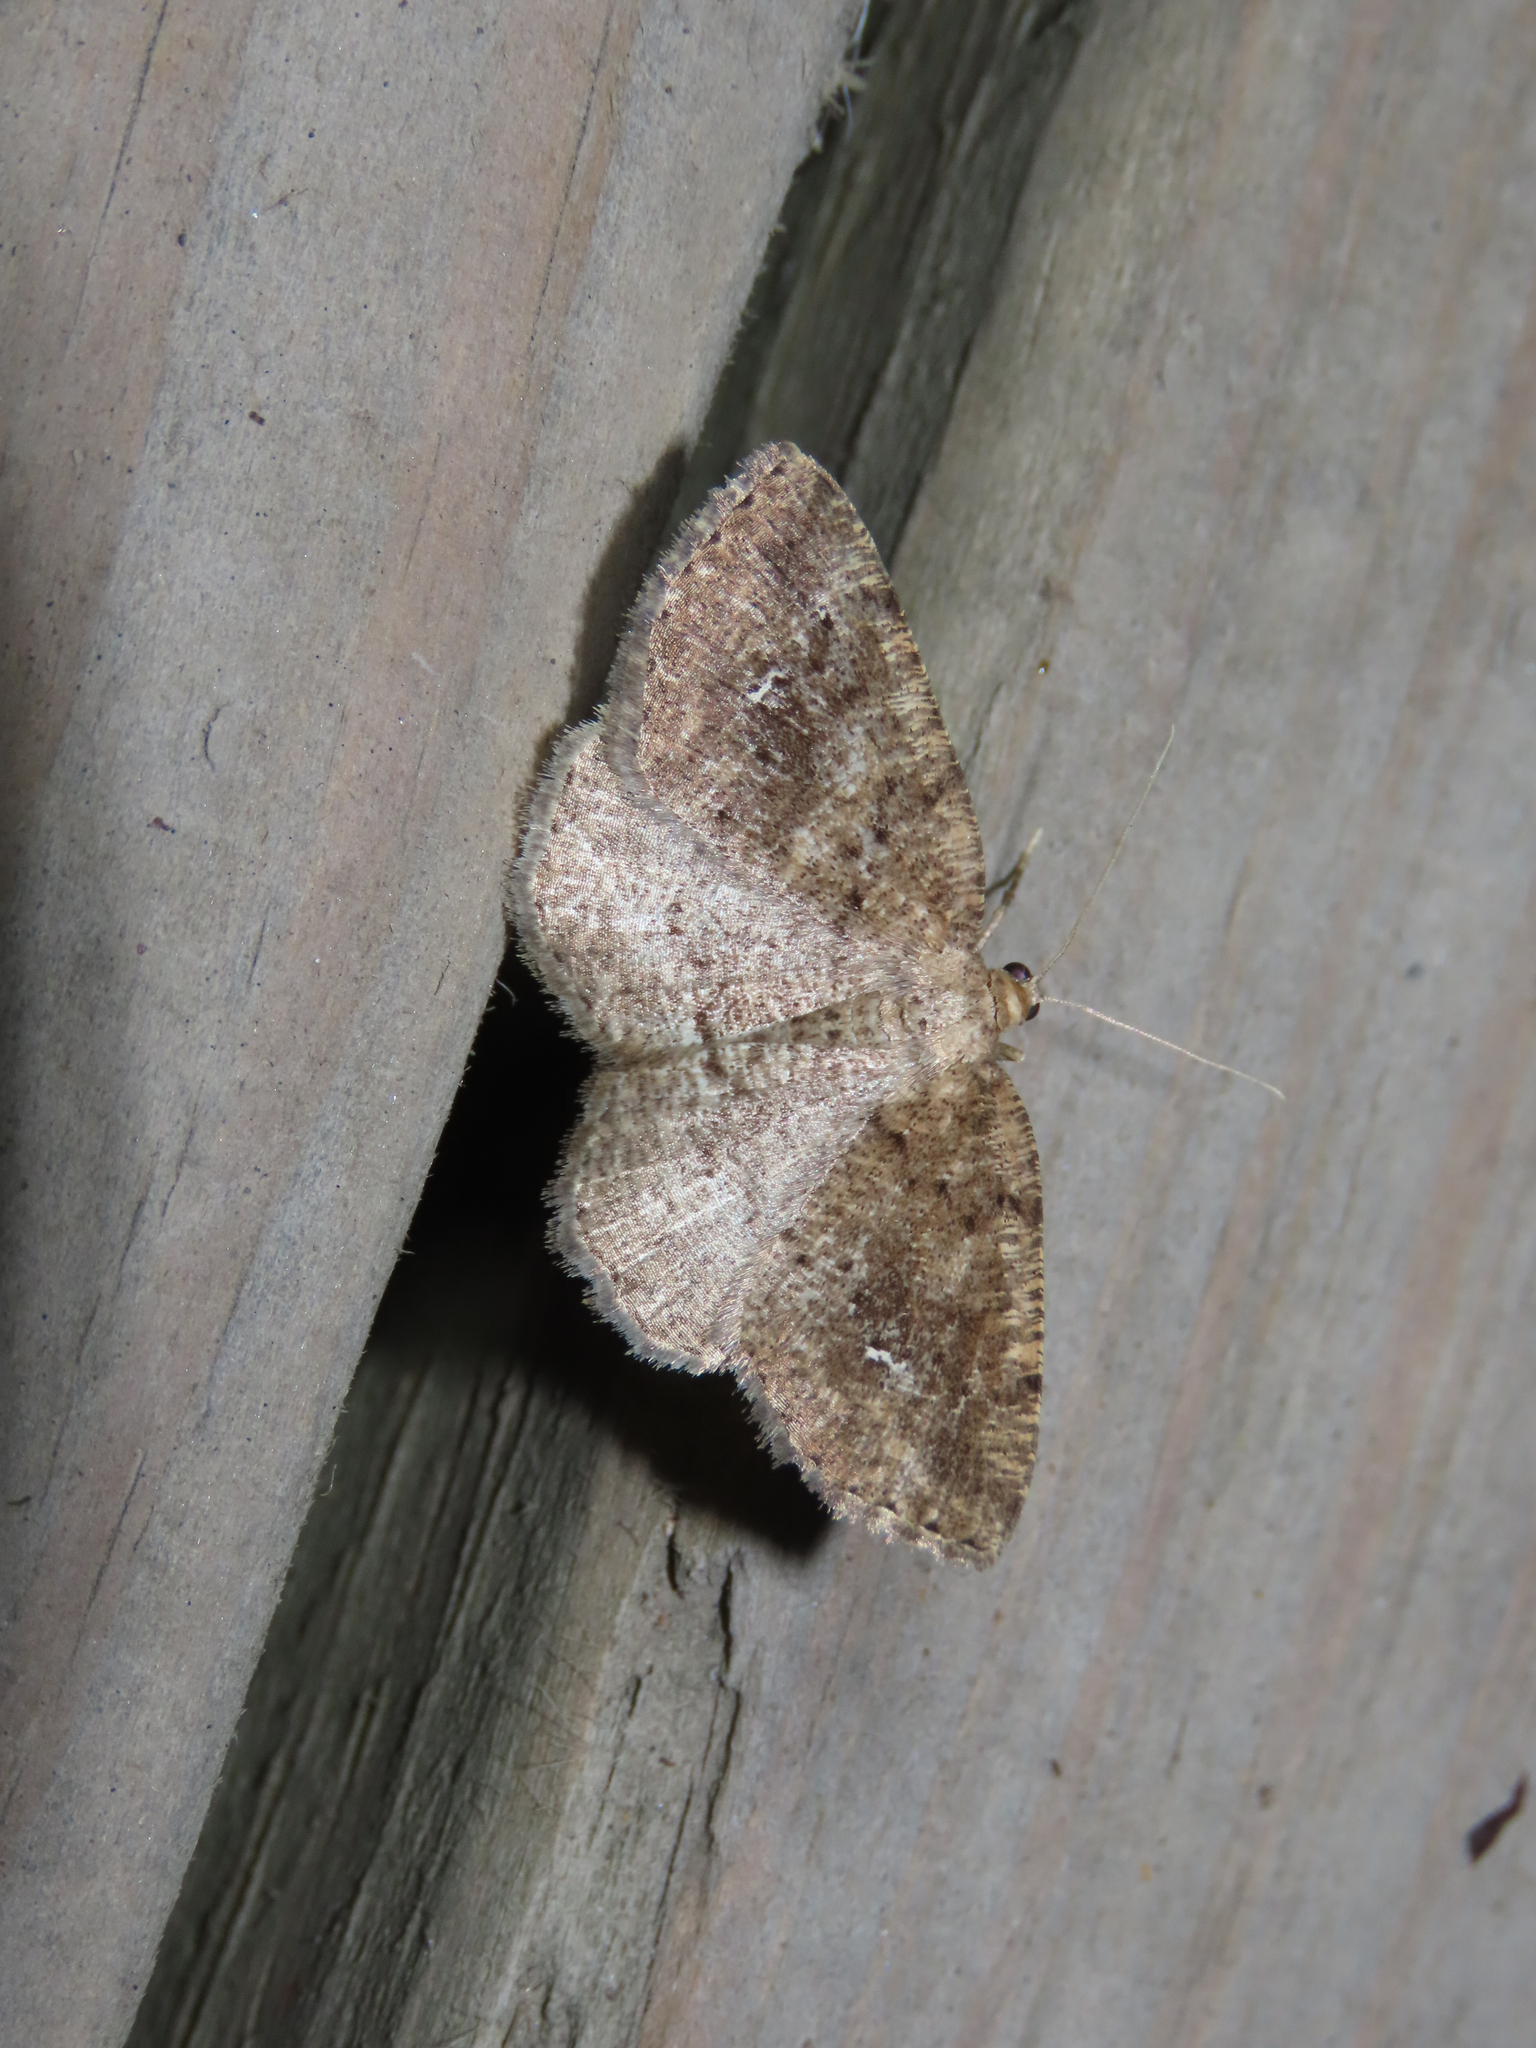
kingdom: Animalia
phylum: Arthropoda
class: Insecta
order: Lepidoptera
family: Geometridae
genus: Homochlodes
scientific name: Homochlodes fritillaria
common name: Pale homochlodes
